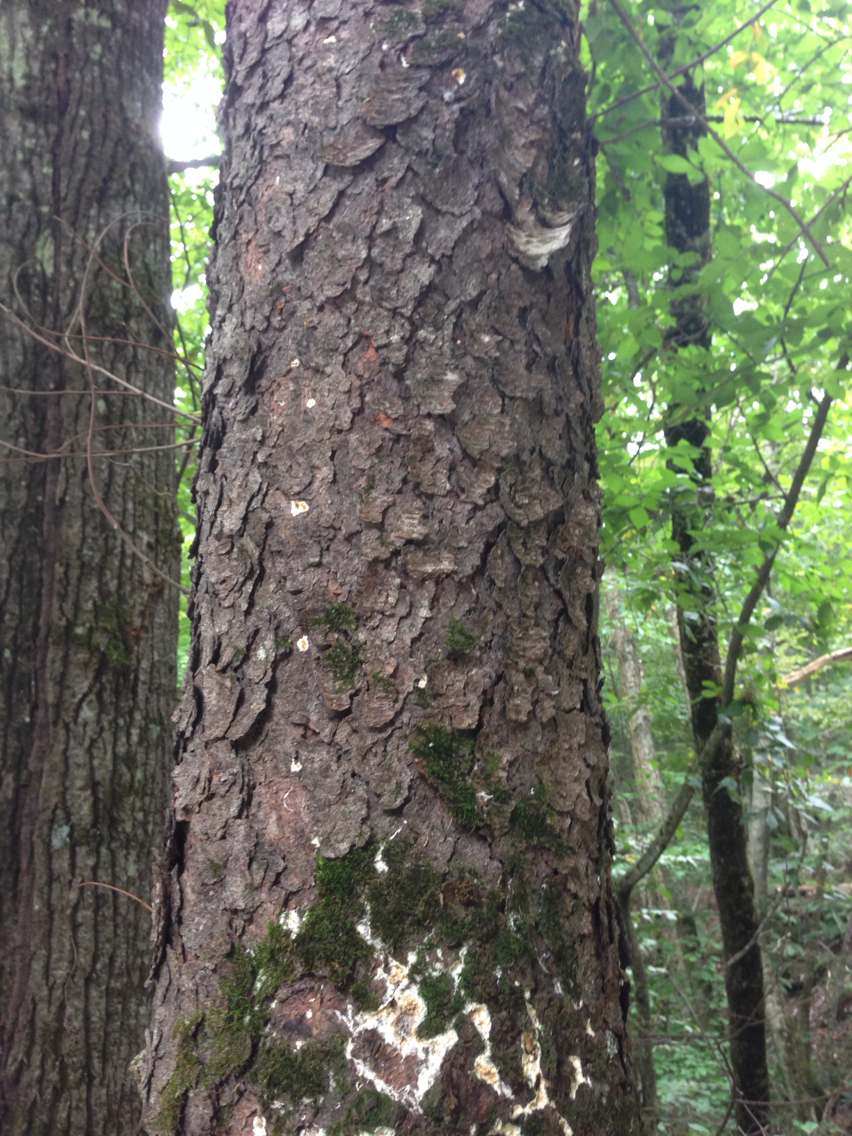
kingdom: Plantae
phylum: Tracheophyta
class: Magnoliopsida
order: Rosales
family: Rosaceae
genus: Prunus
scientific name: Prunus serotina
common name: Black cherry
